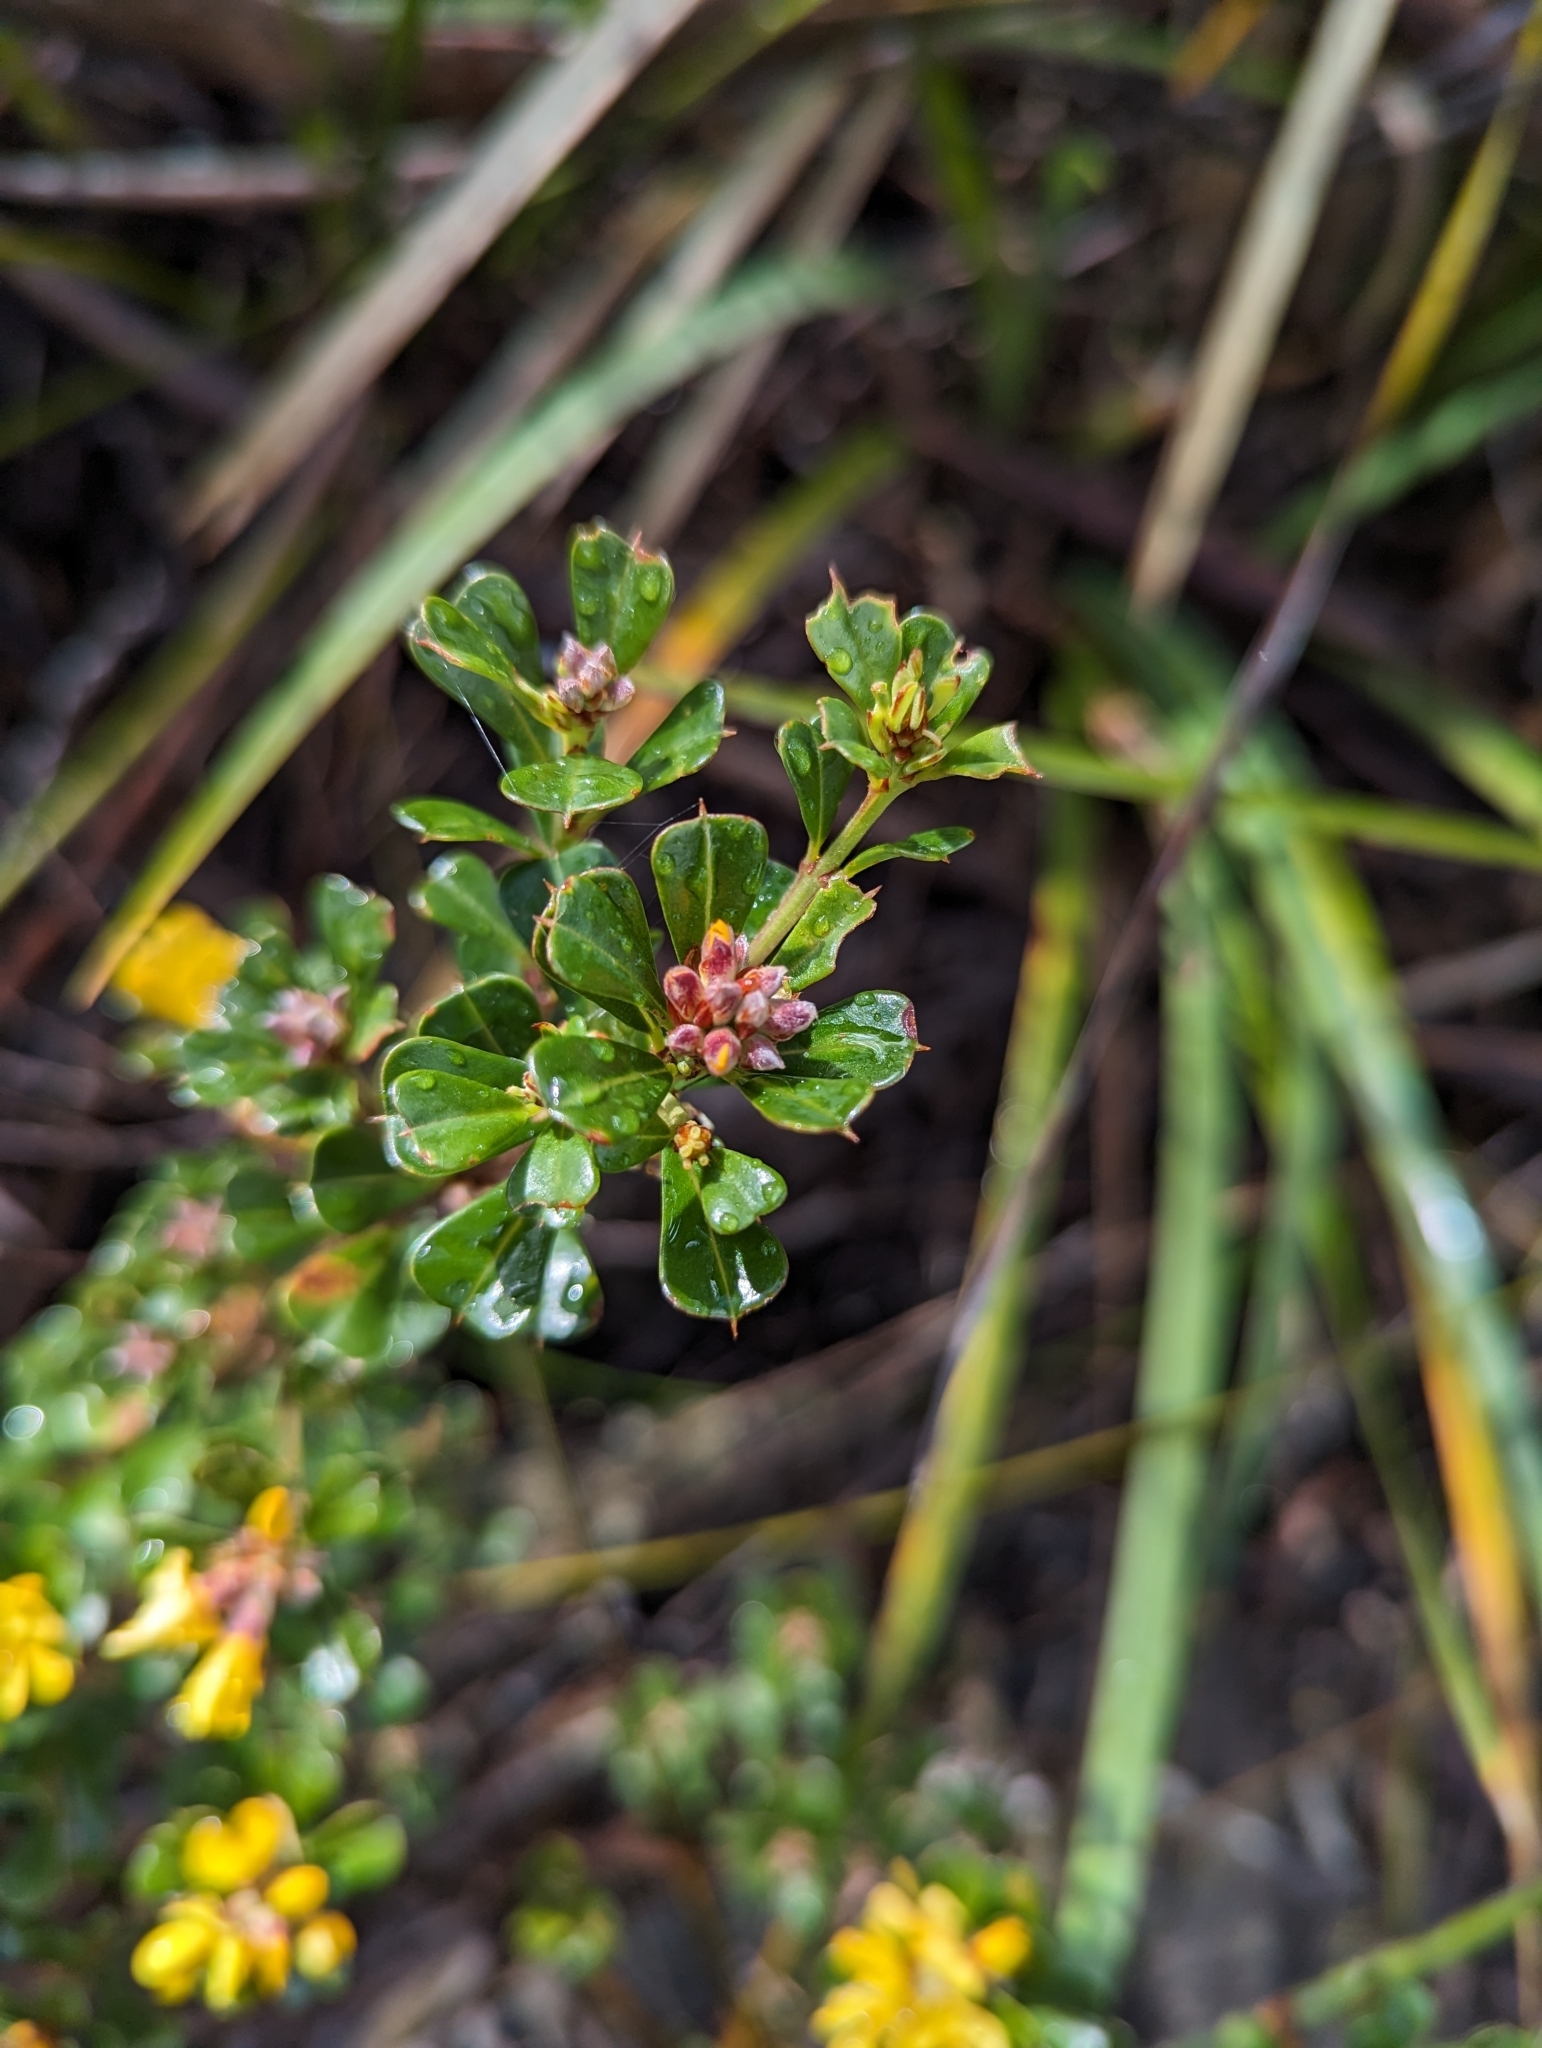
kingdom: Plantae
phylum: Tracheophyta
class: Magnoliopsida
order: Fabales
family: Fabaceae
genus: Pultenaea
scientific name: Pultenaea daphnoides
